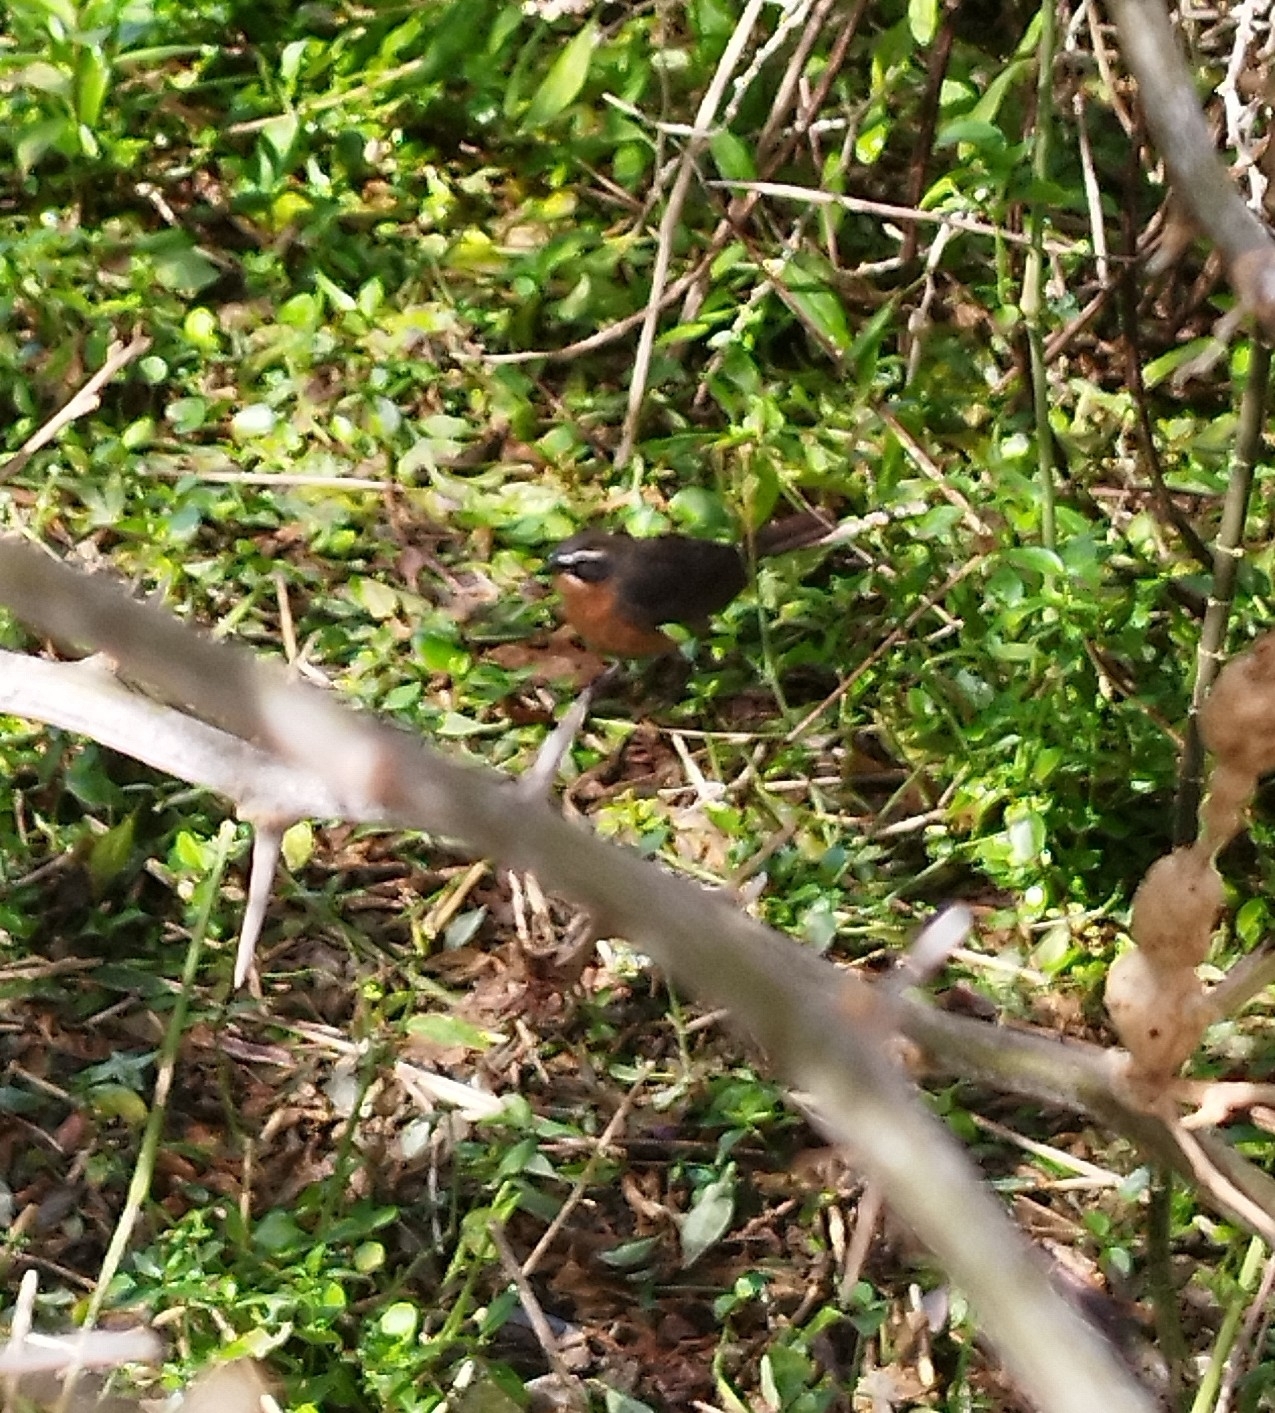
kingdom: Animalia
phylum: Chordata
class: Aves
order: Passeriformes
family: Thraupidae
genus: Poospiza
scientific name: Poospiza nigrorufa
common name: Black-and-rufous warbling finch
